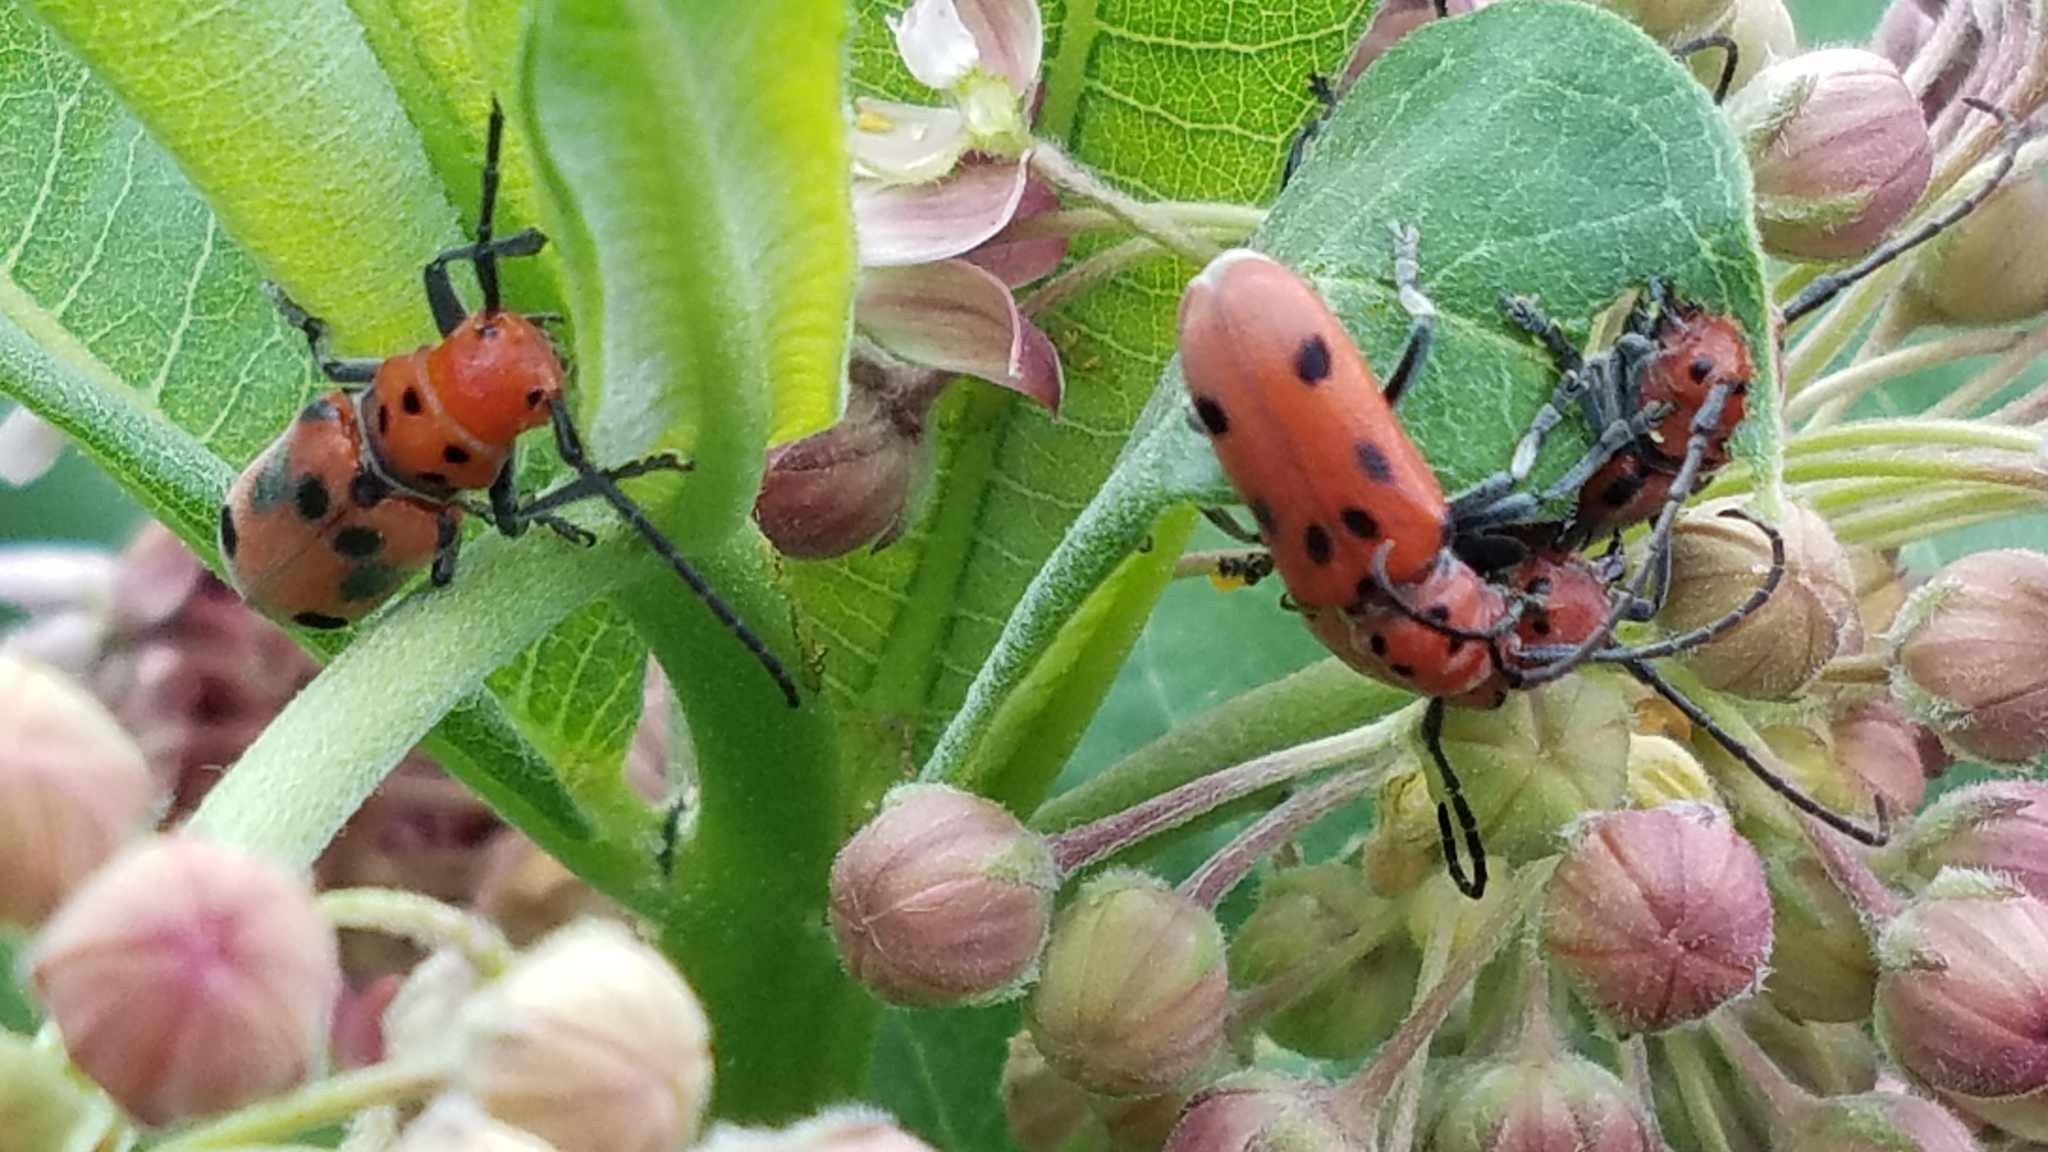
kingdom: Animalia
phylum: Arthropoda
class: Insecta
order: Coleoptera
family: Cerambycidae
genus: Tetraopes
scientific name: Tetraopes tetrophthalmus
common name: Red milkweed beetle
